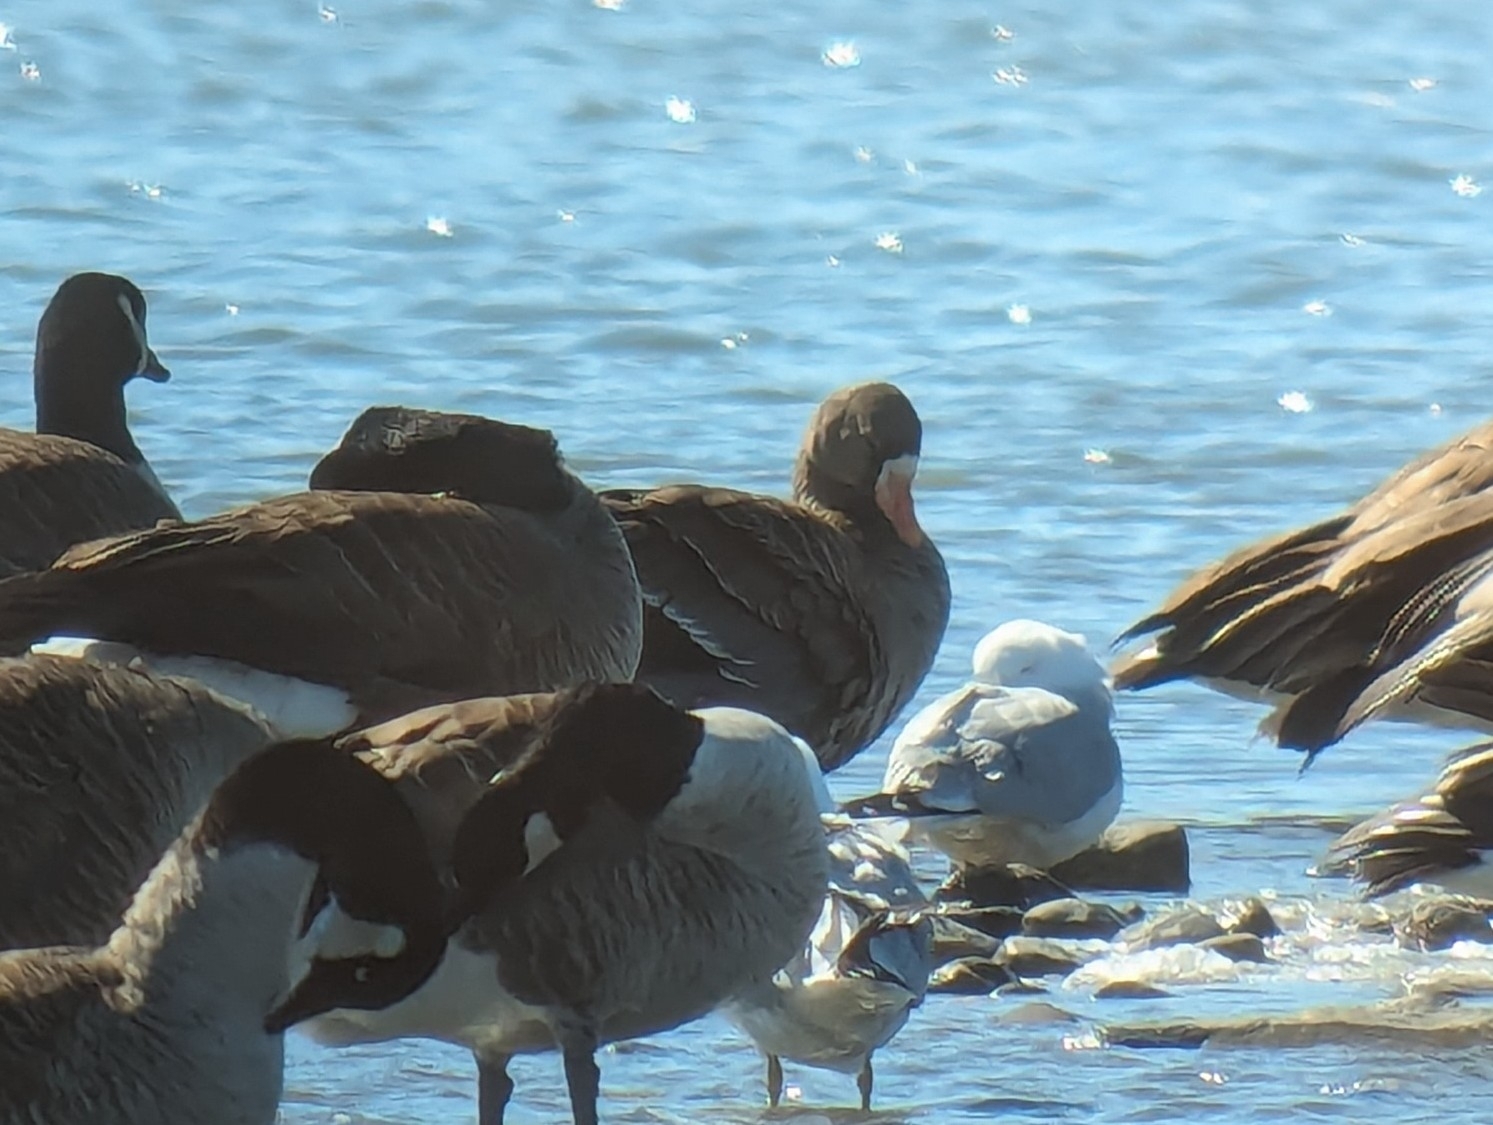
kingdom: Animalia
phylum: Chordata
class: Aves
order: Anseriformes
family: Anatidae
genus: Anser
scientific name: Anser albifrons
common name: Greater white-fronted goose
